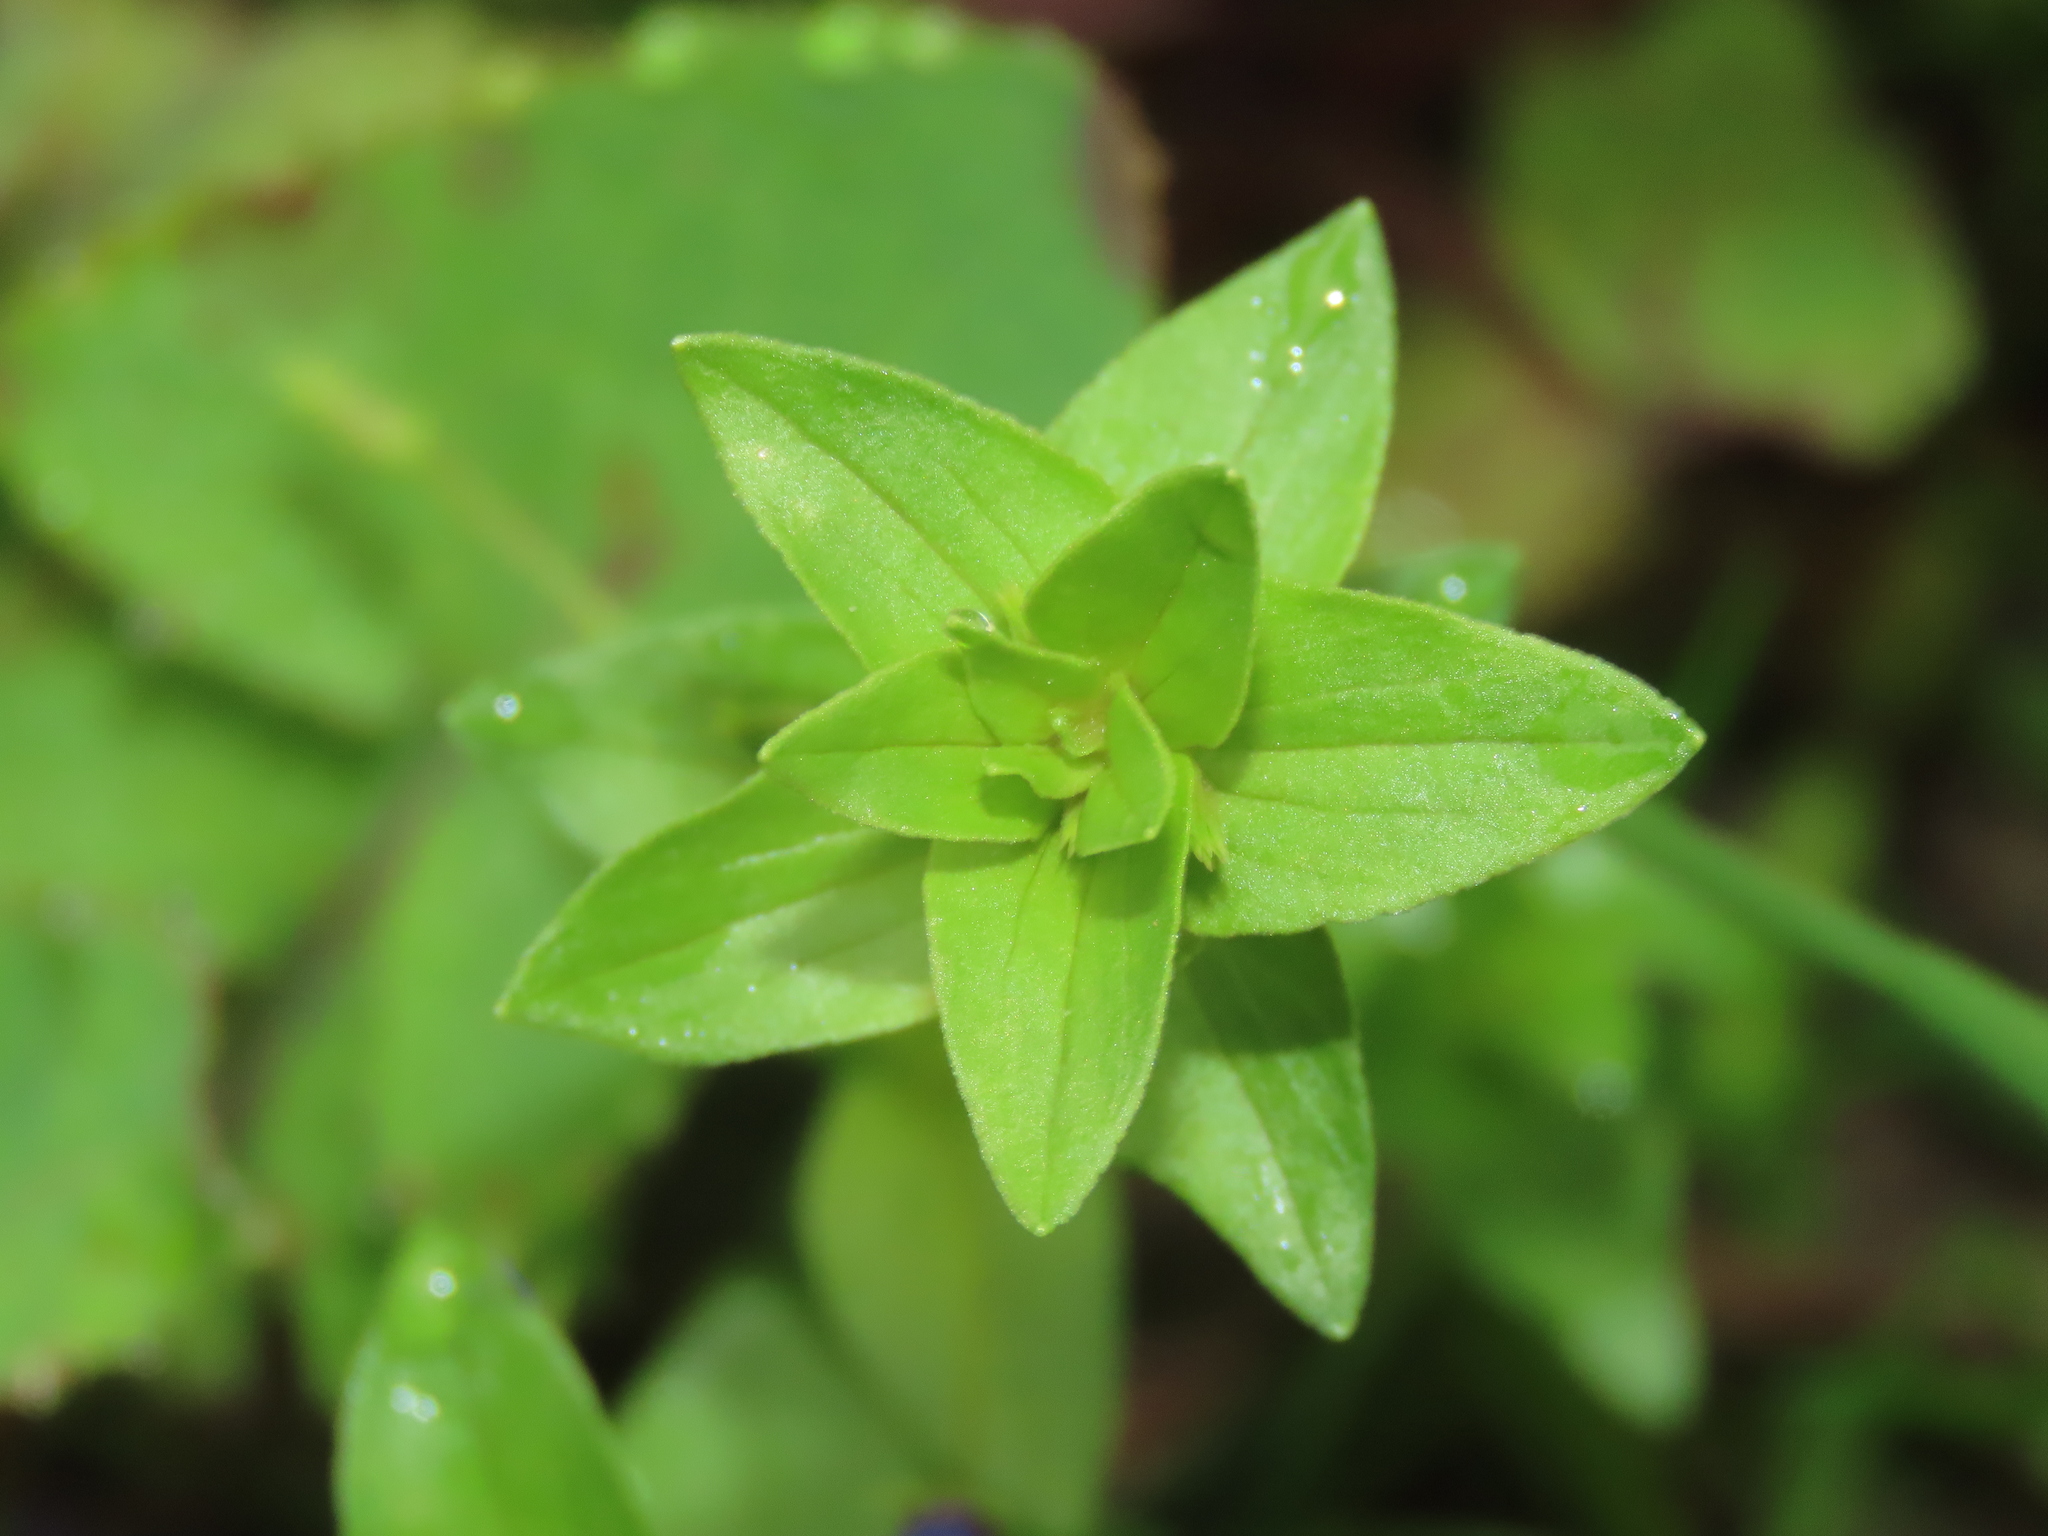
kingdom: Plantae
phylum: Tracheophyta
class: Magnoliopsida
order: Ericales
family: Primulaceae
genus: Lysimachia
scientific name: Lysimachia loeflingii
